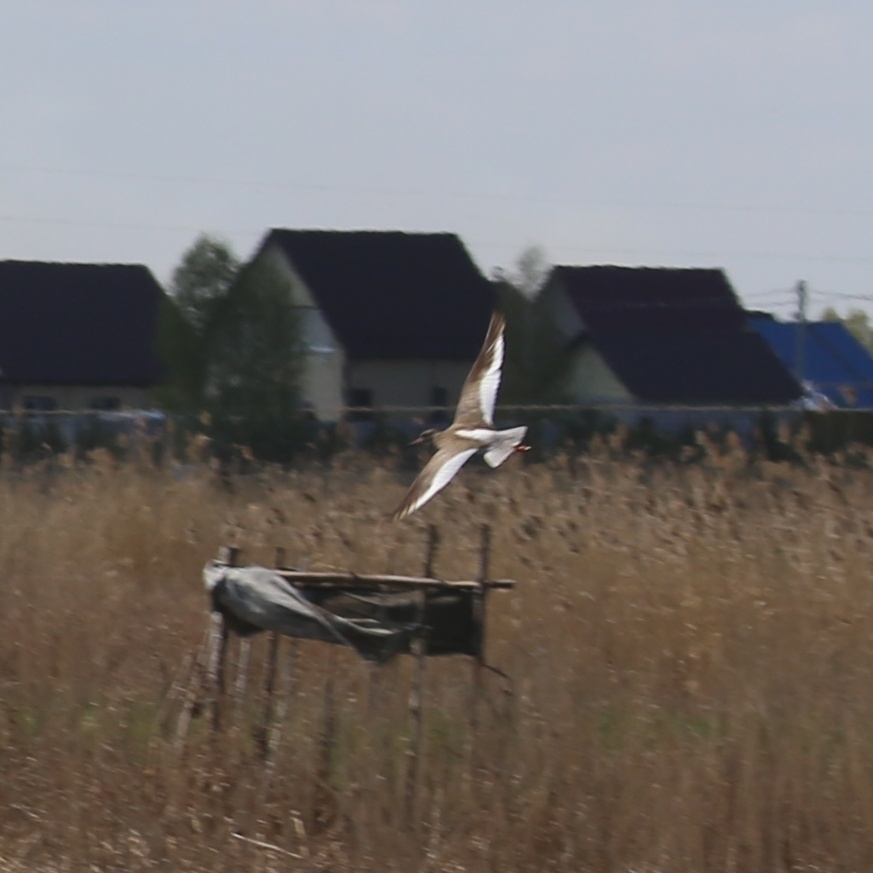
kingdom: Animalia
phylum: Chordata
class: Aves
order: Charadriiformes
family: Scolopacidae
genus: Tringa
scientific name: Tringa totanus
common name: Common redshank
